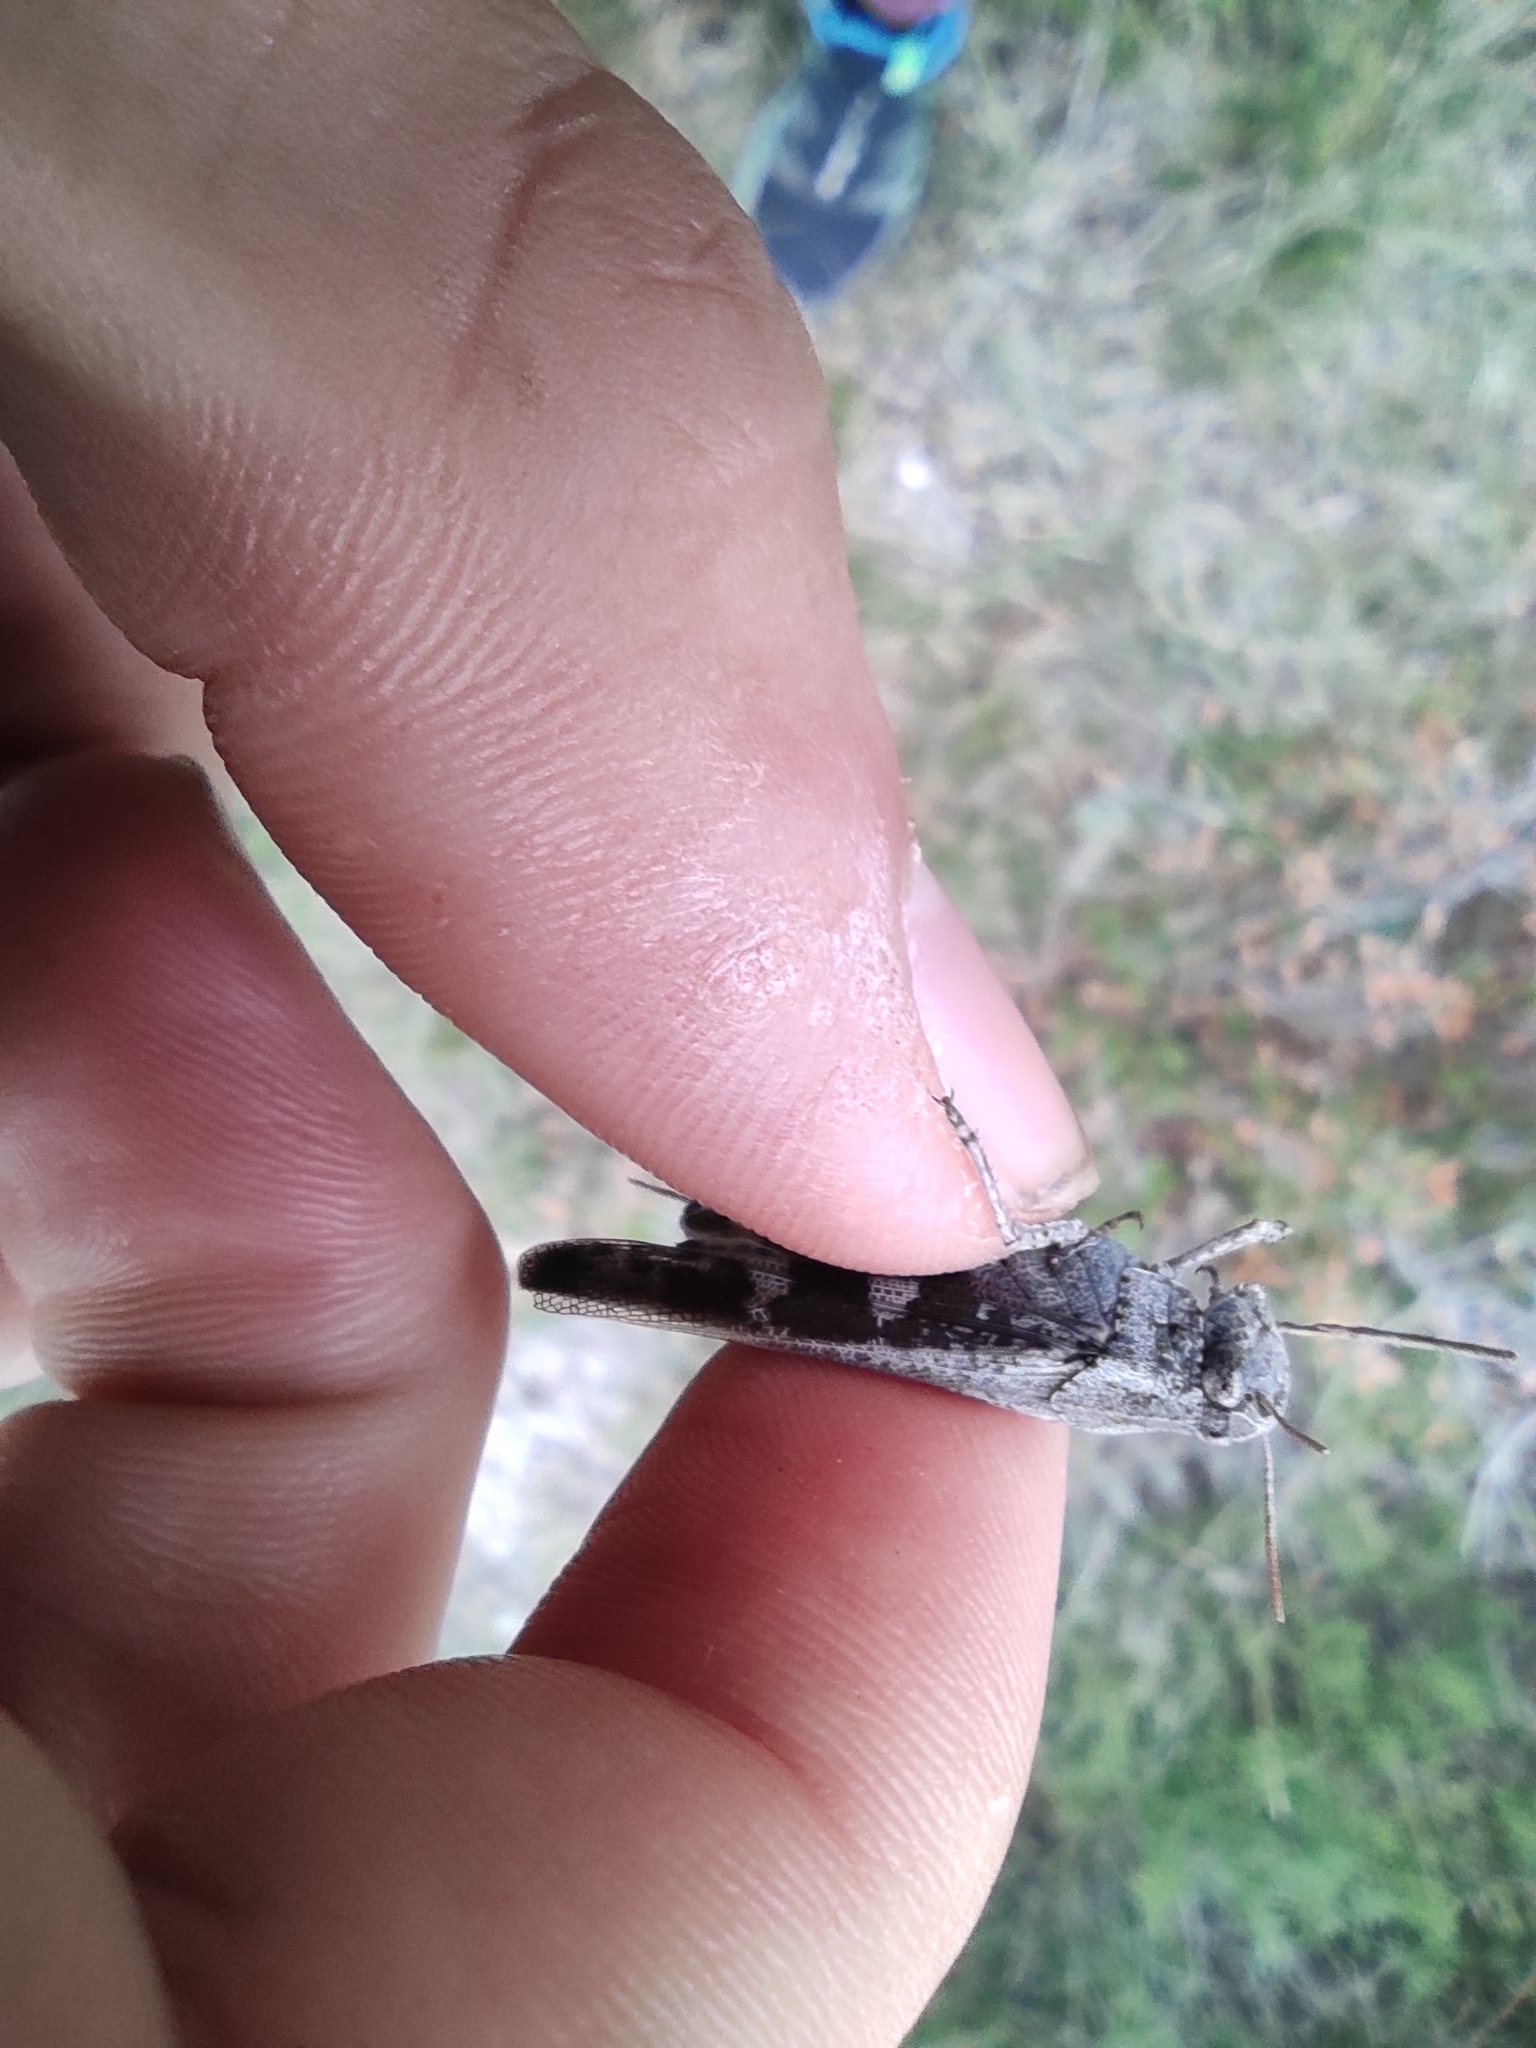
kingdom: Animalia
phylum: Arthropoda
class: Insecta
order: Orthoptera
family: Acrididae
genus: Aiolopus
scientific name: Aiolopus strepens
